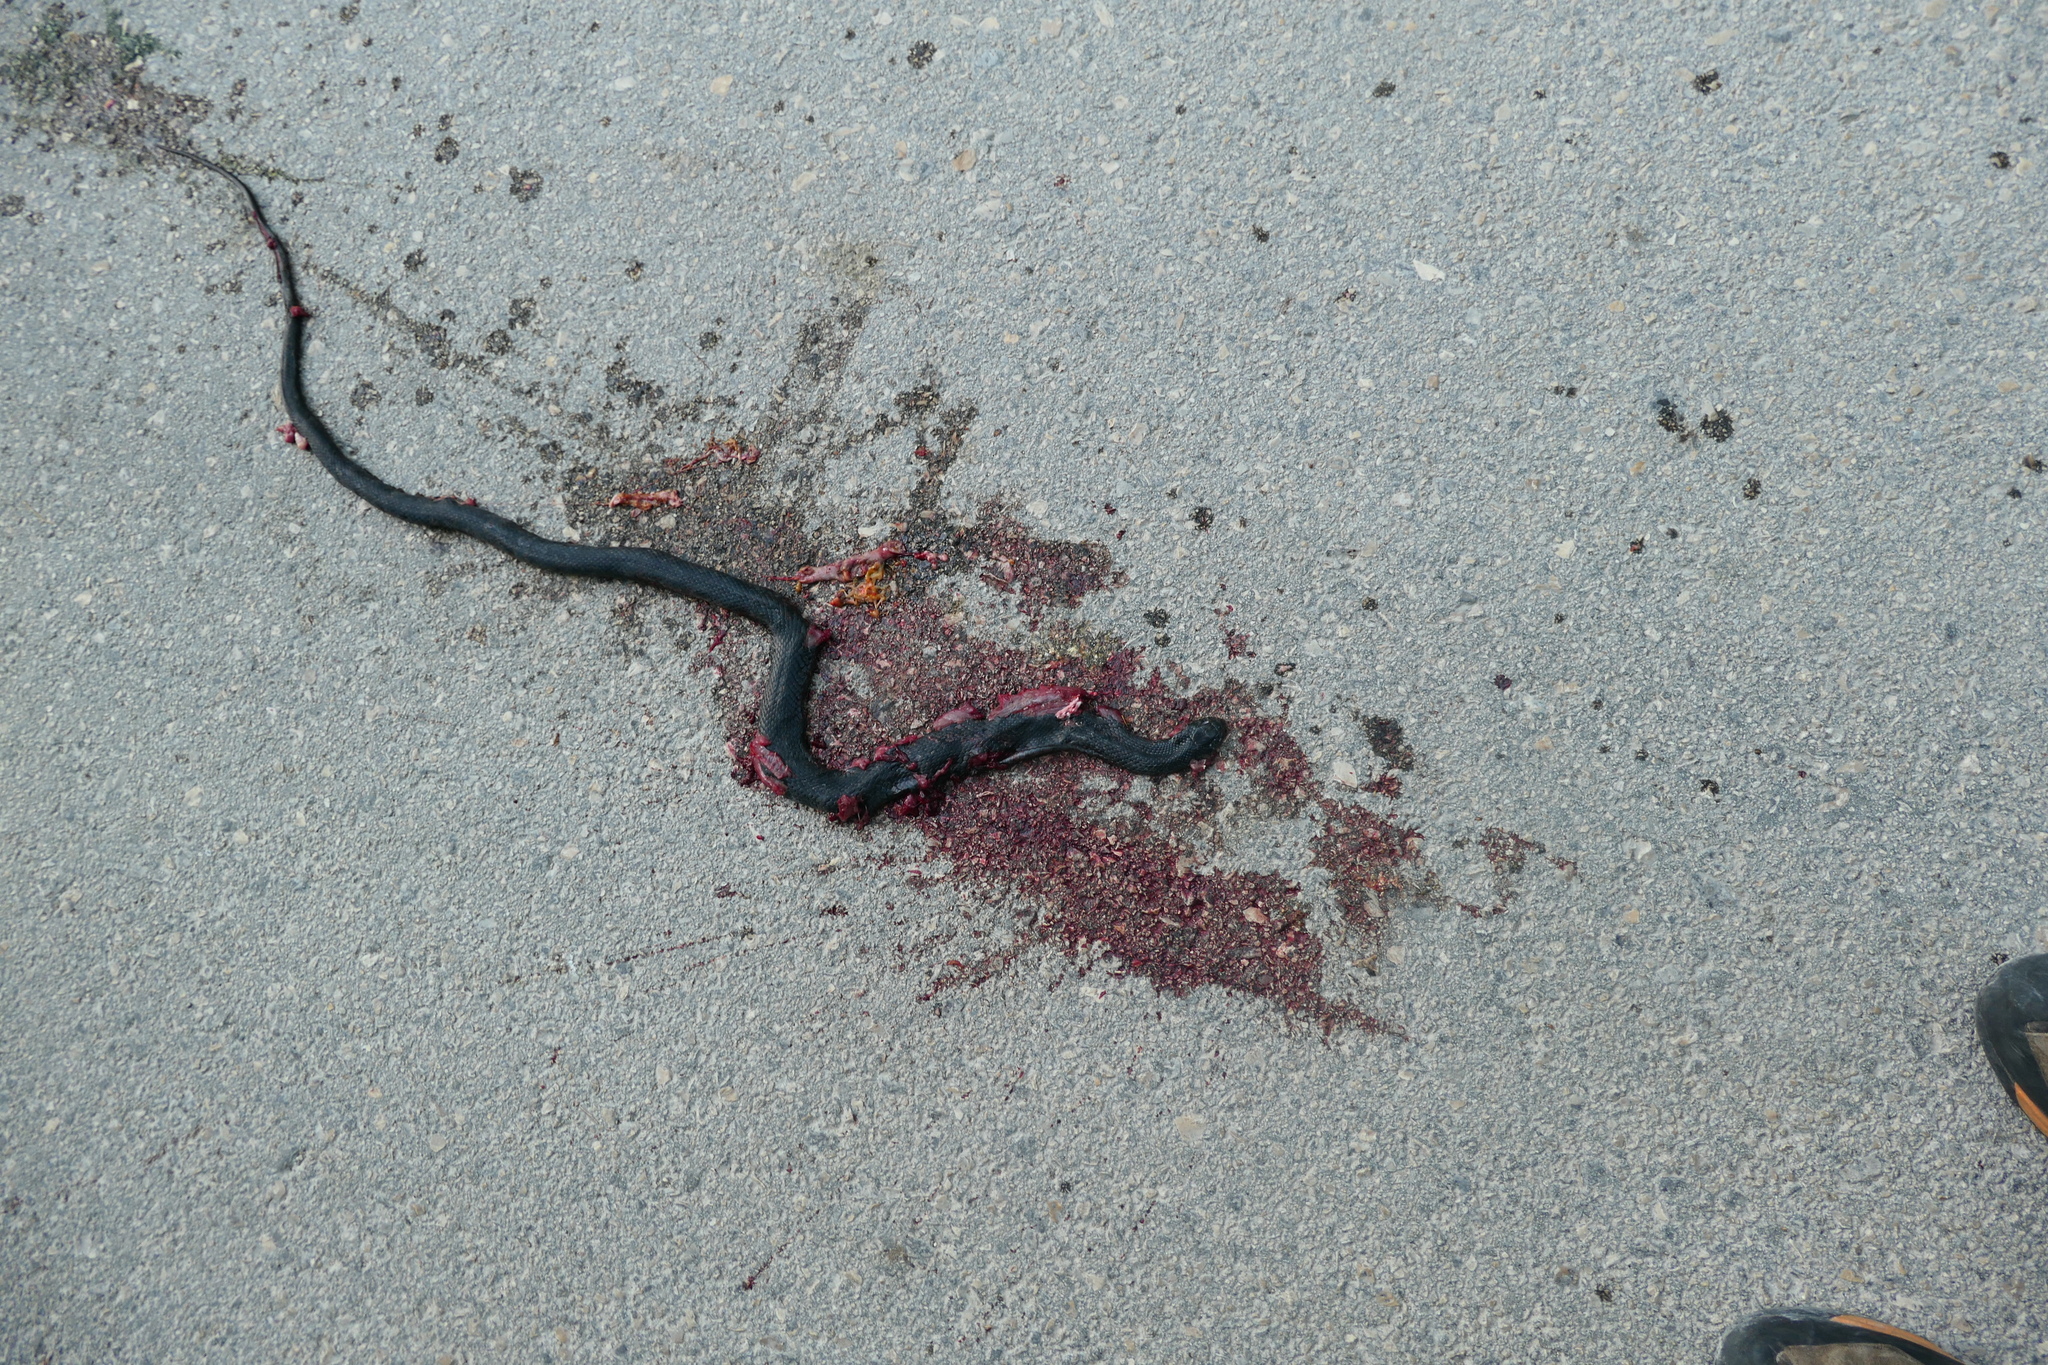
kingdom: Animalia
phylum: Chordata
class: Squamata
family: Colubridae
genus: Hierophis
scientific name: Hierophis viridiflavus
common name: Green whip snake
